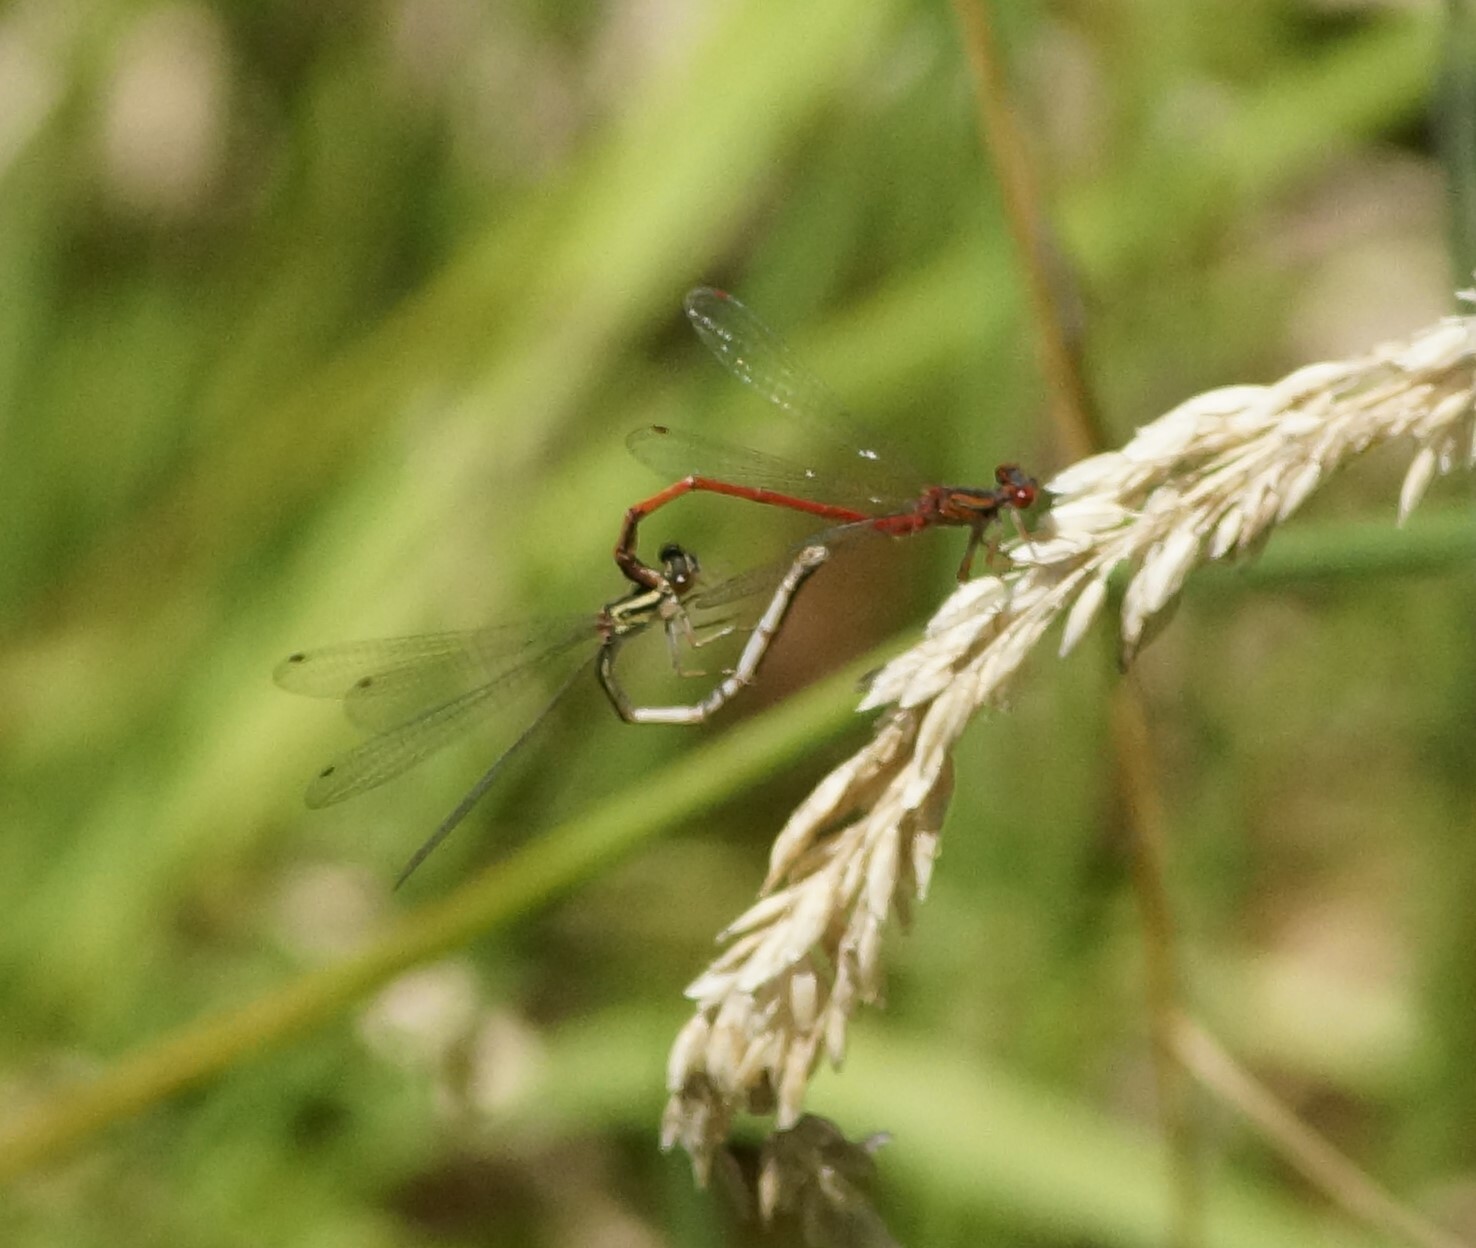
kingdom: Animalia
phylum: Arthropoda
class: Insecta
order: Odonata
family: Coenagrionidae
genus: Xanthocnemis
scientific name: Xanthocnemis zealandica
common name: Common redcoat damselfly
